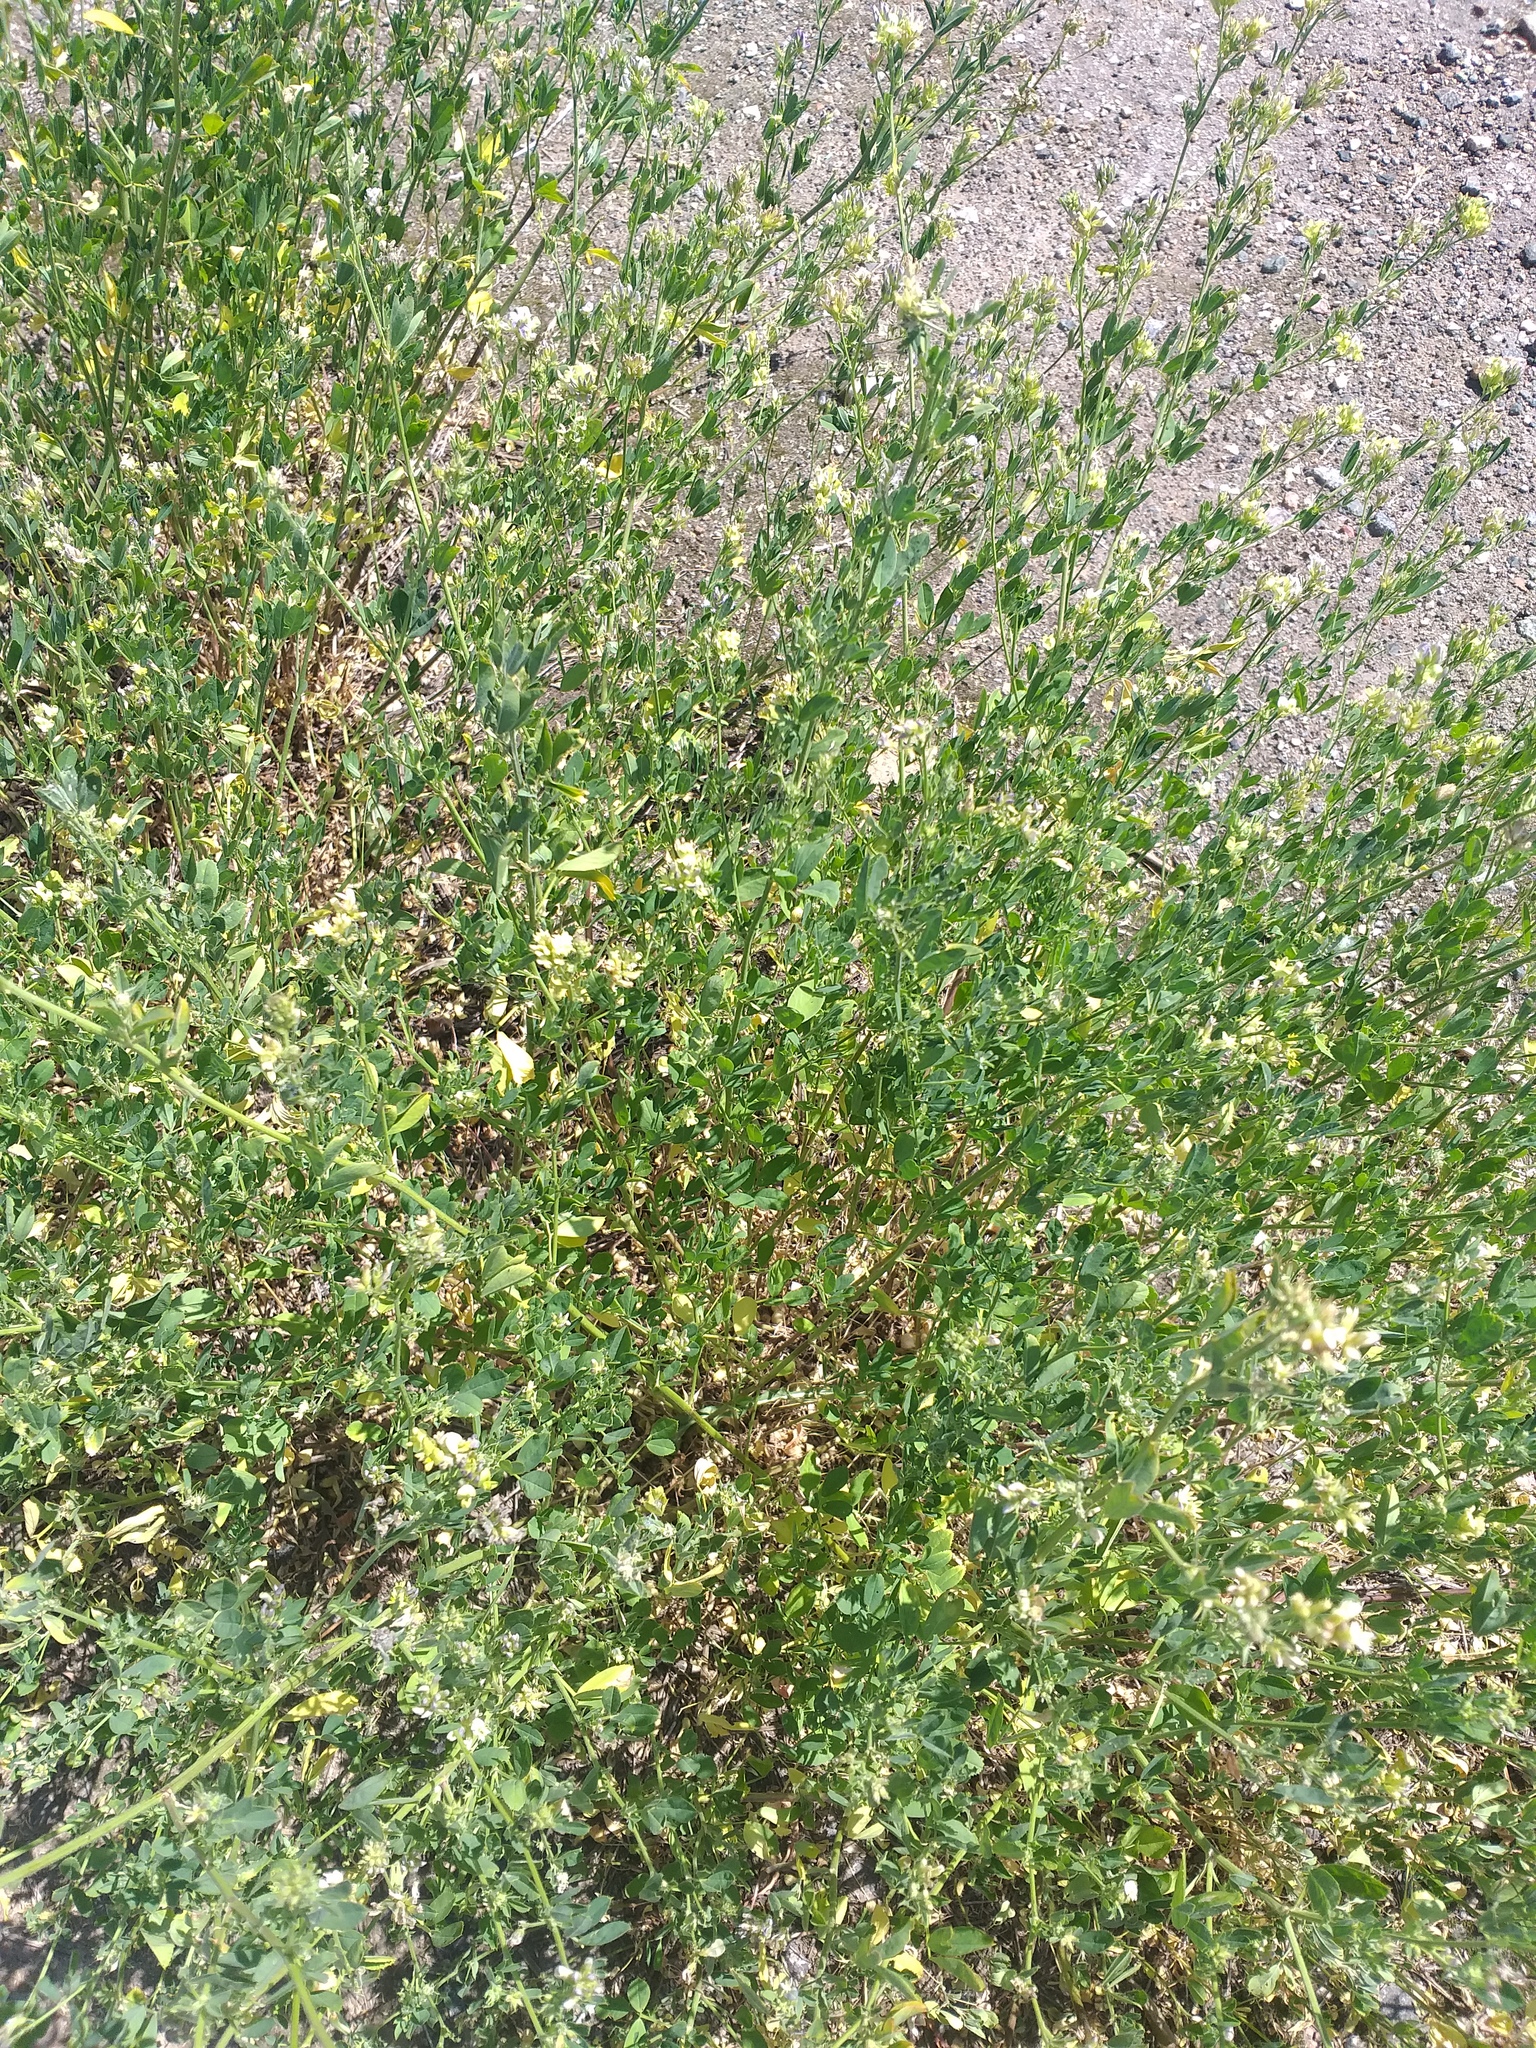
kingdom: Plantae
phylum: Tracheophyta
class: Magnoliopsida
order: Fabales
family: Fabaceae
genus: Medicago
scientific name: Medicago varia
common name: Sand lucerne
